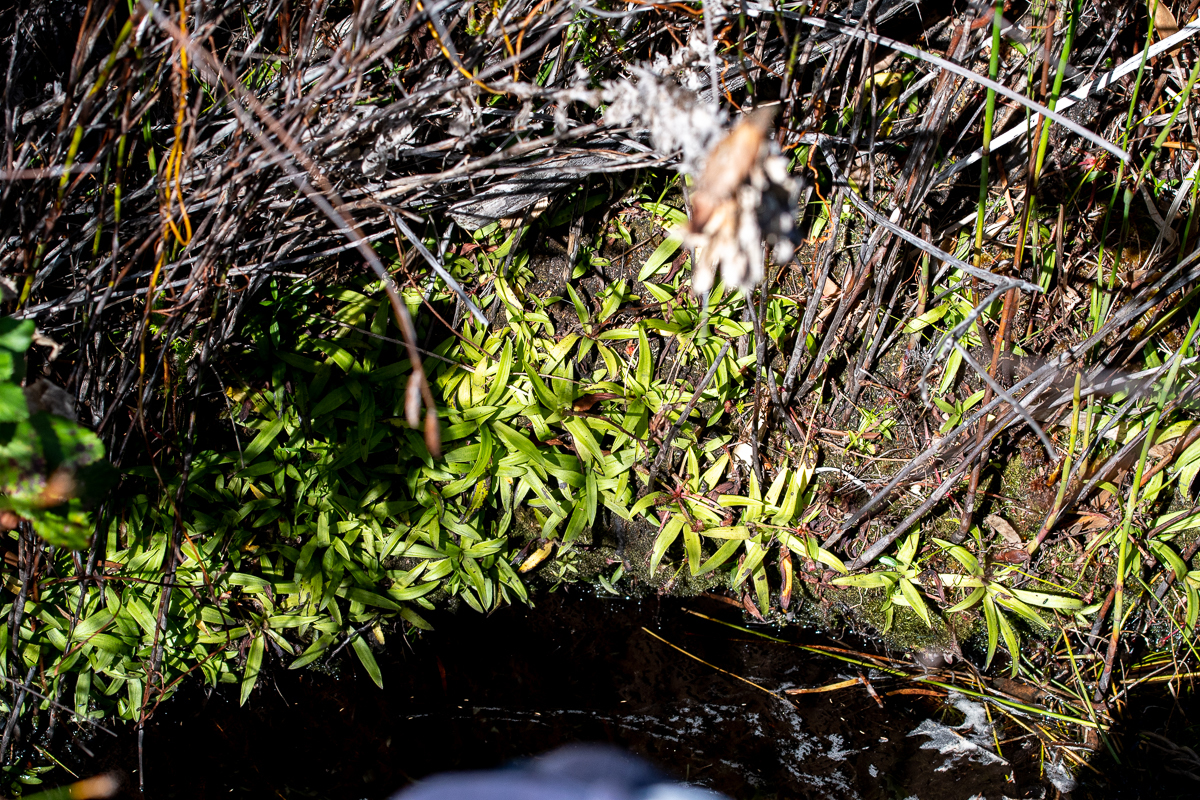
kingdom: Plantae
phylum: Tracheophyta
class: Liliopsida
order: Asparagales
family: Orchidaceae
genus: Disa
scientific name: Disa tripetaloides
